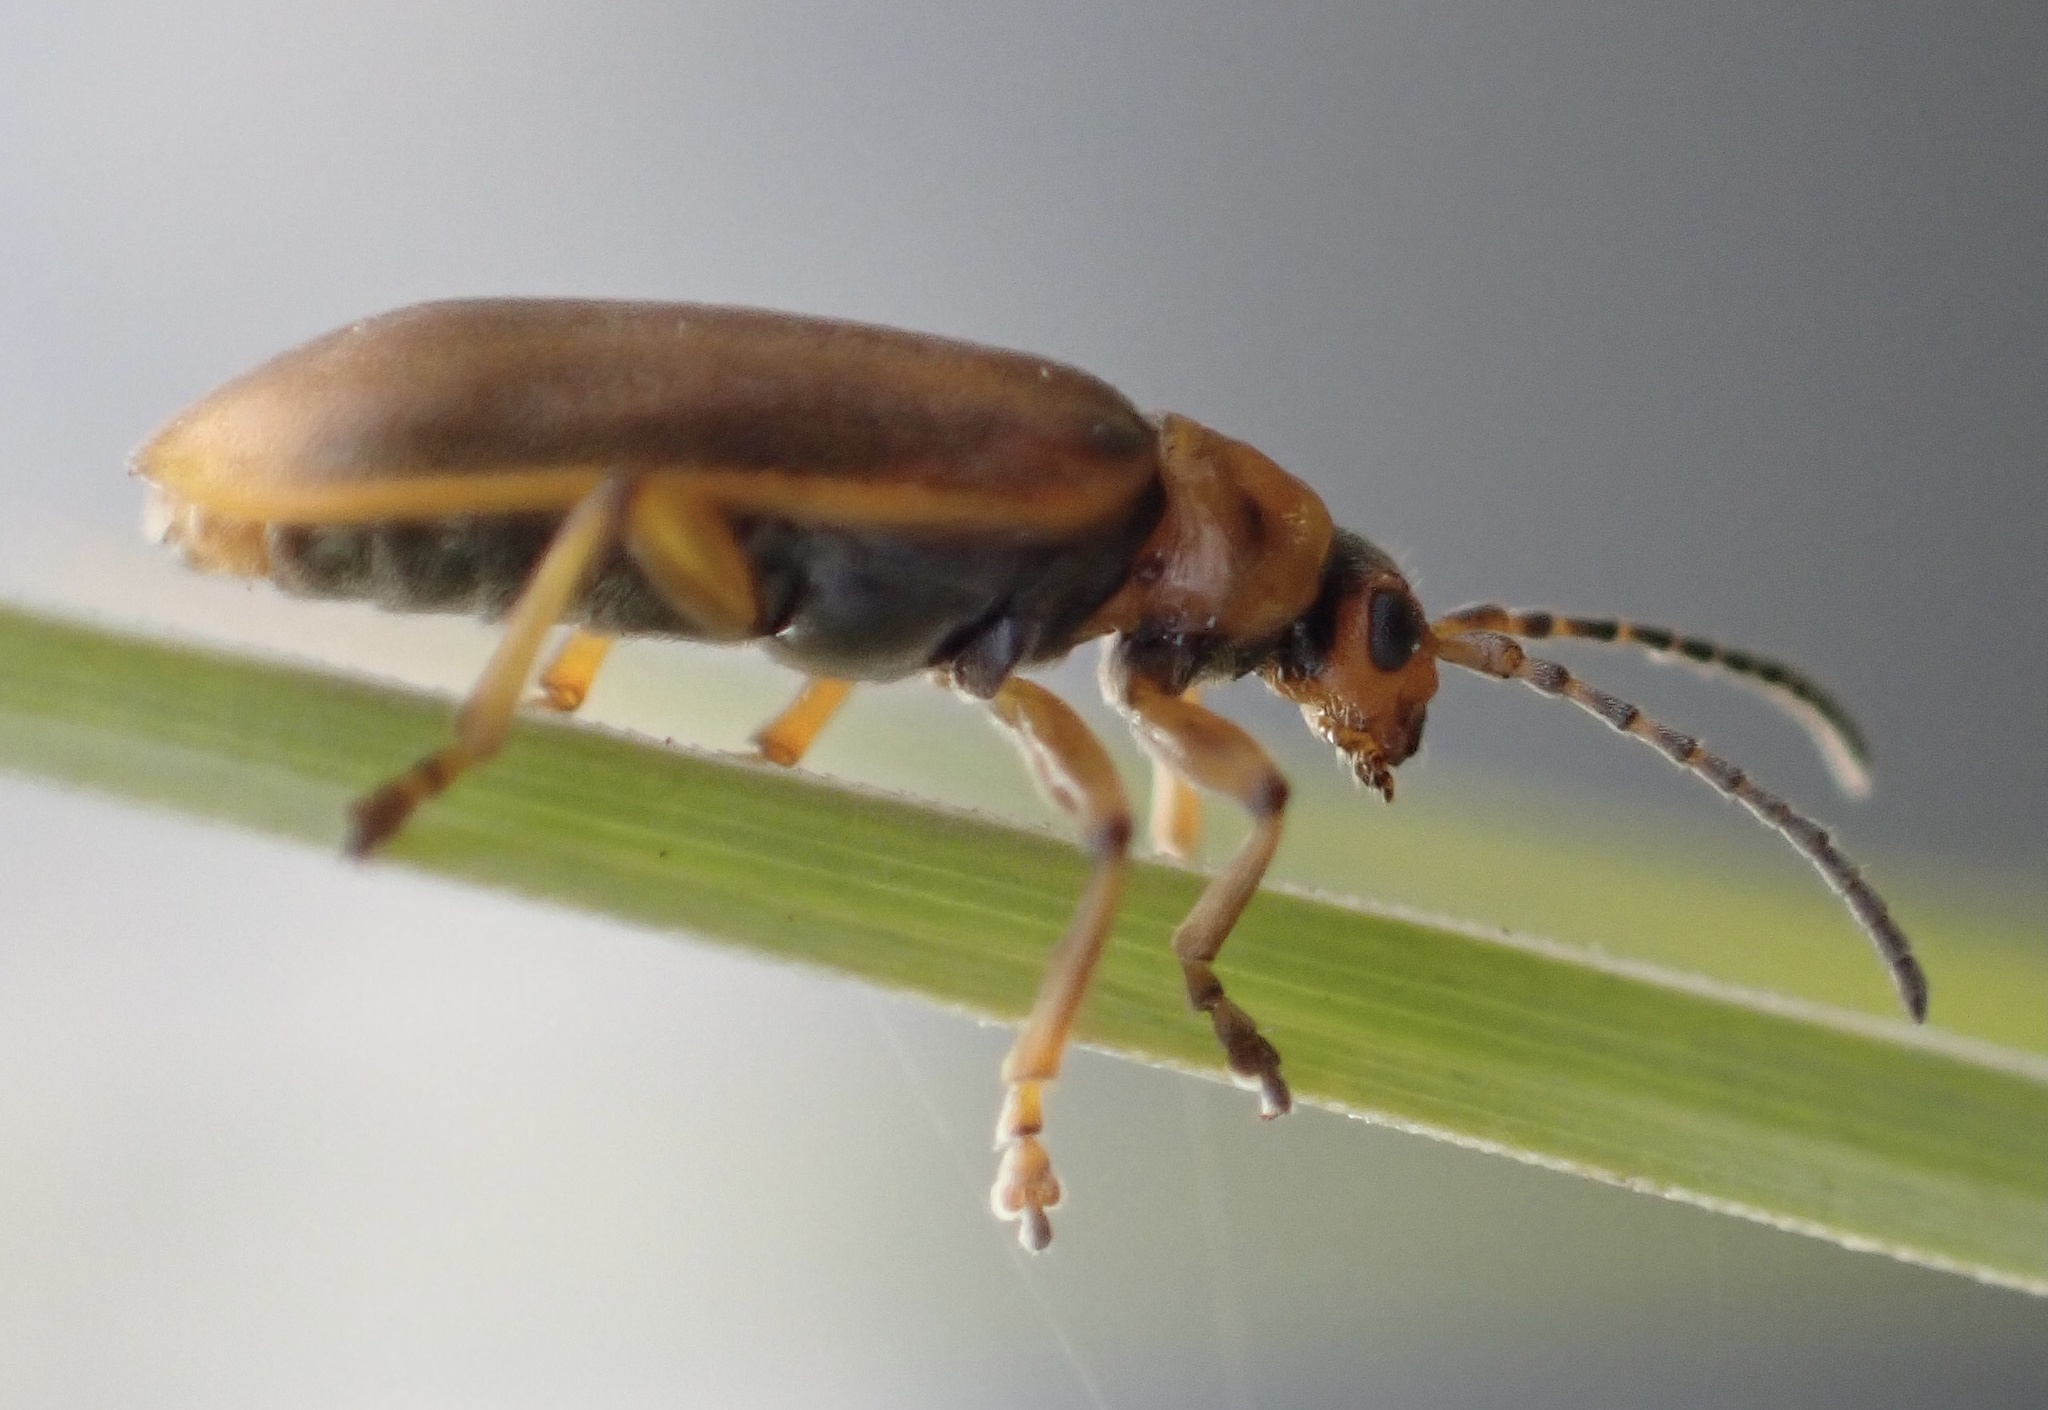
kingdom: Animalia
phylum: Arthropoda
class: Insecta
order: Coleoptera
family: Chrysomelidae
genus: Galerucella
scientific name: Galerucella lineola
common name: Brown willow beetle
